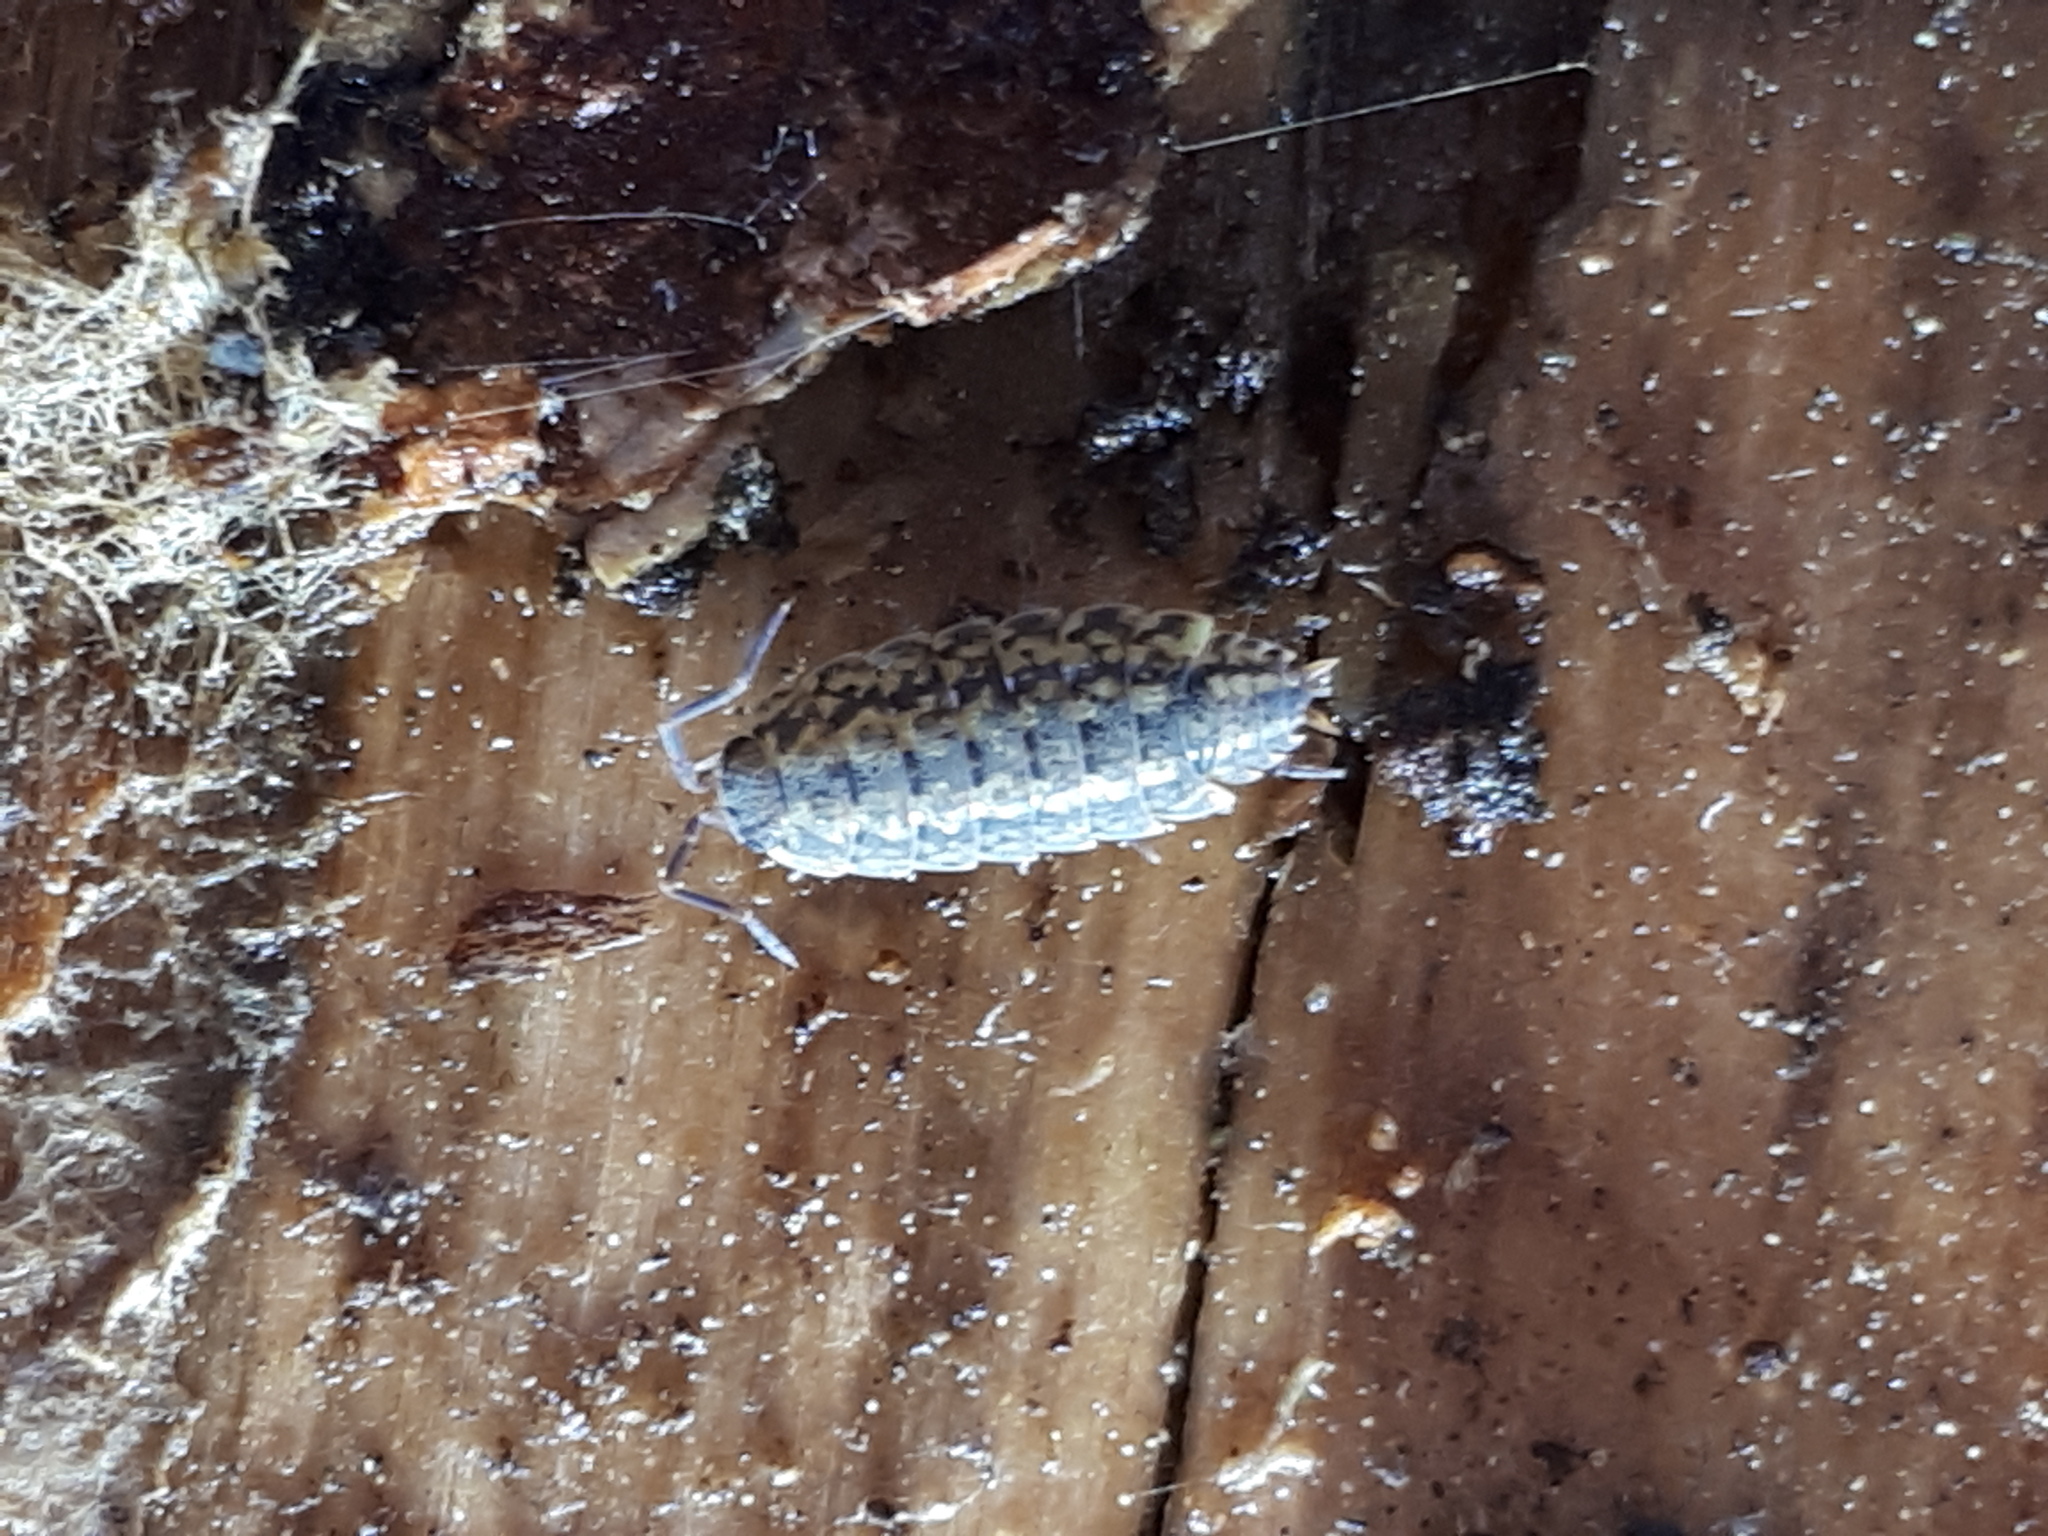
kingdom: Animalia
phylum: Arthropoda
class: Malacostraca
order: Isopoda
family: Philosciidae
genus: Lepidoniscus
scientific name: Lepidoniscus minutus
